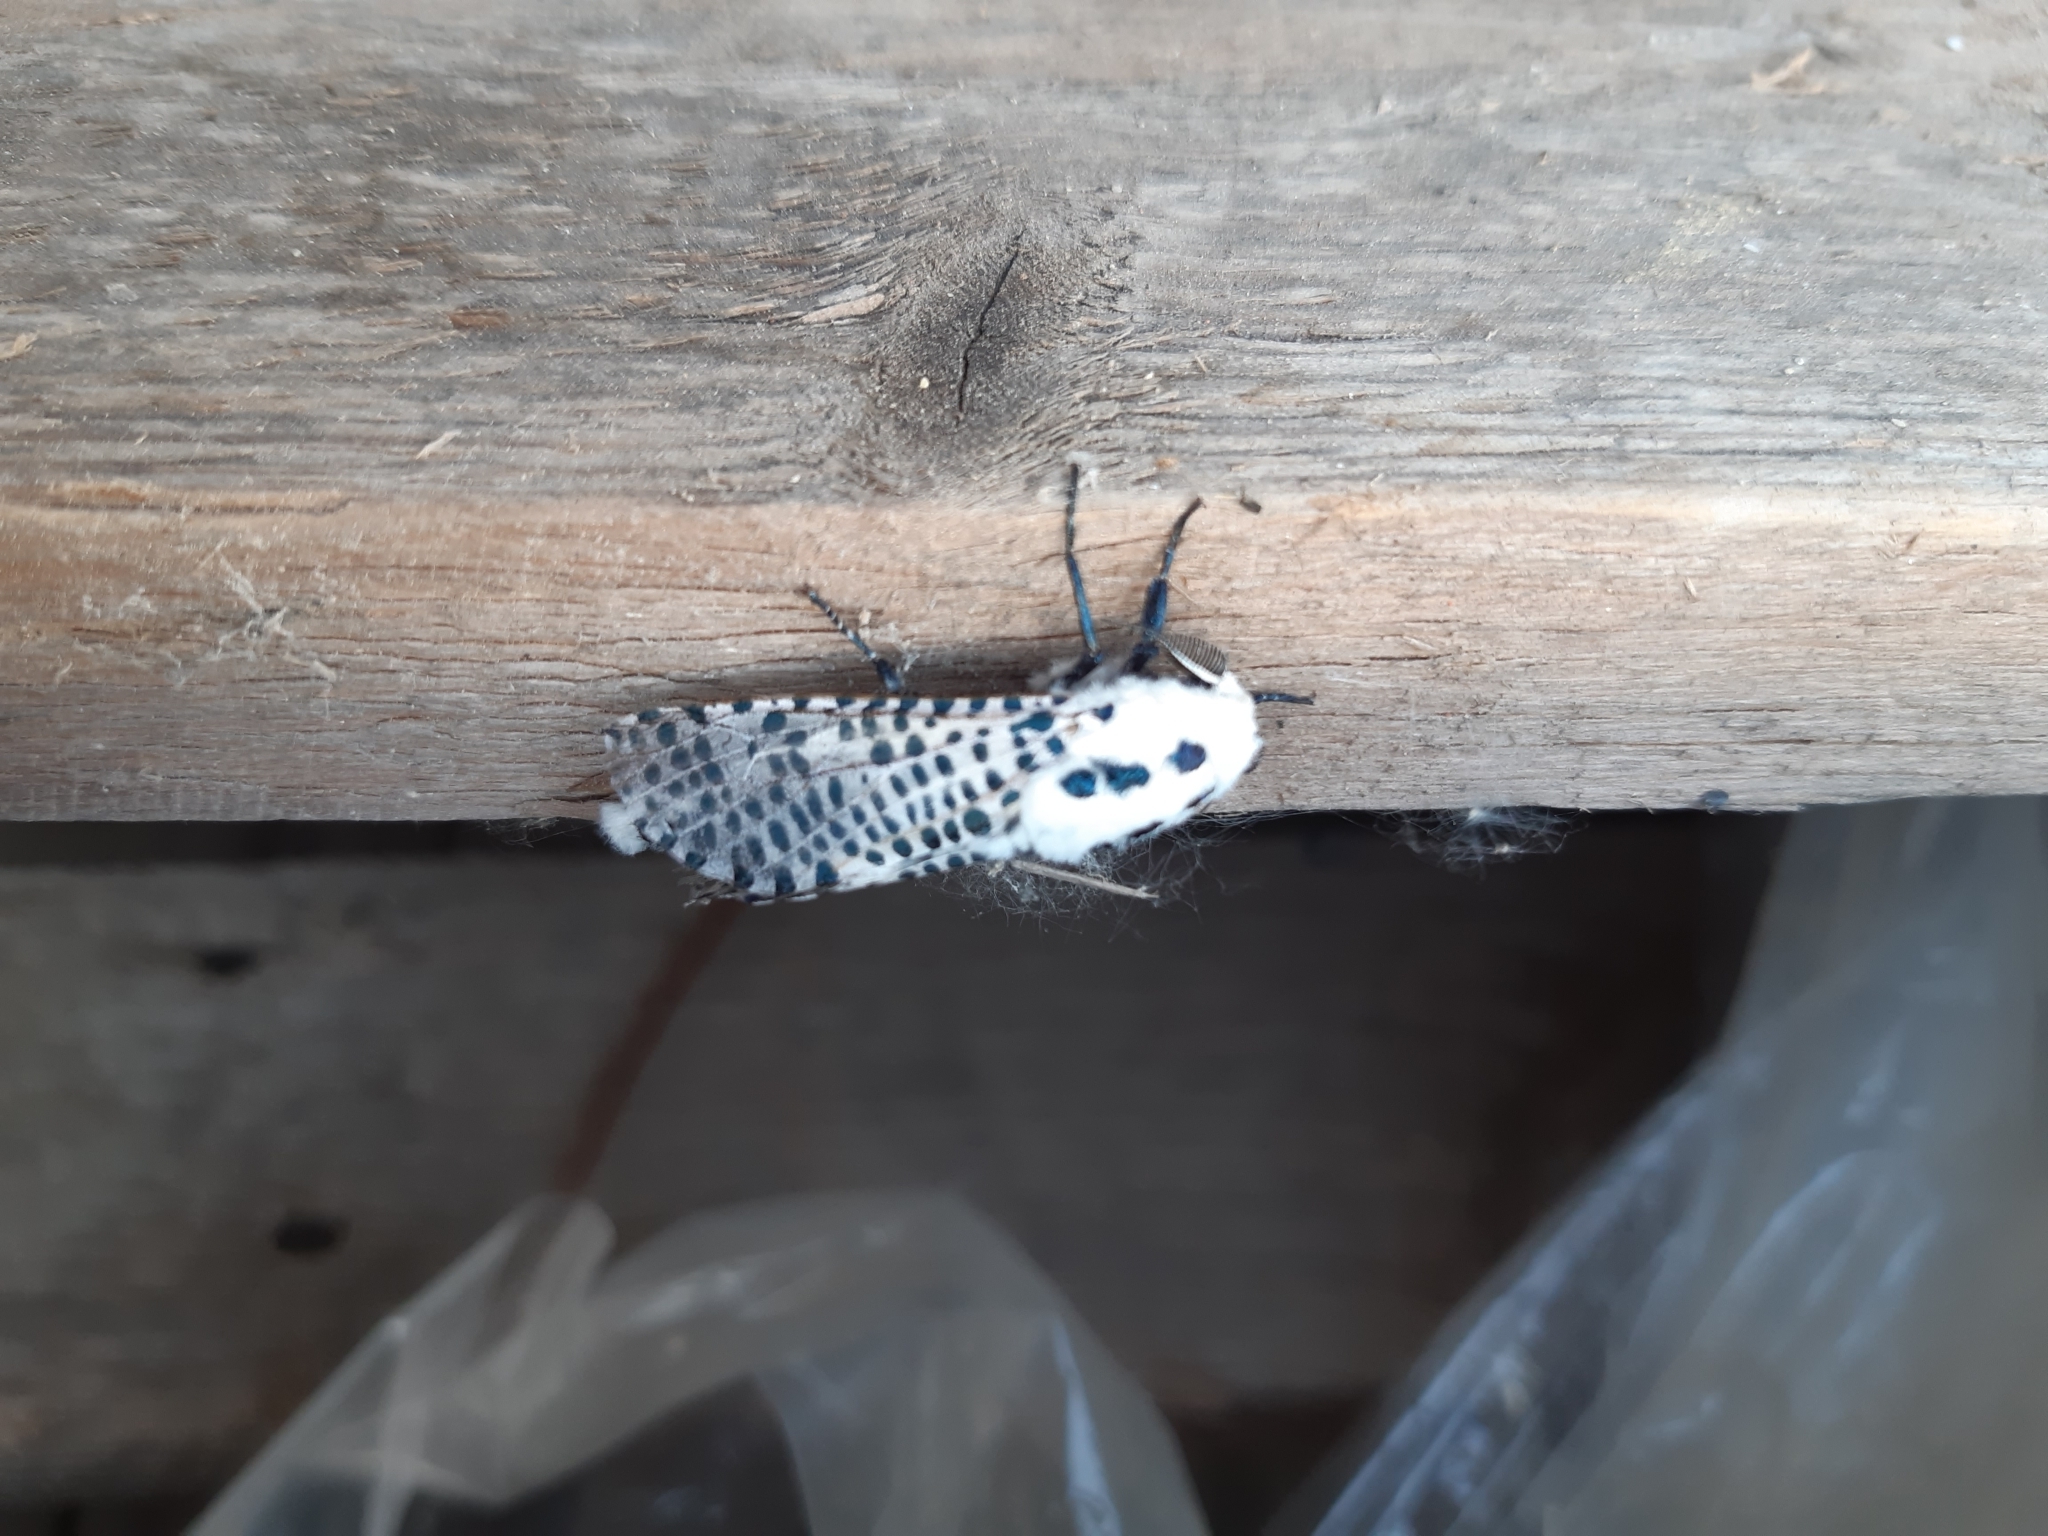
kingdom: Animalia
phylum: Arthropoda
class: Insecta
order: Lepidoptera
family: Cossidae
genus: Zeuzera
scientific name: Zeuzera pyrina
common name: Leopard moth
